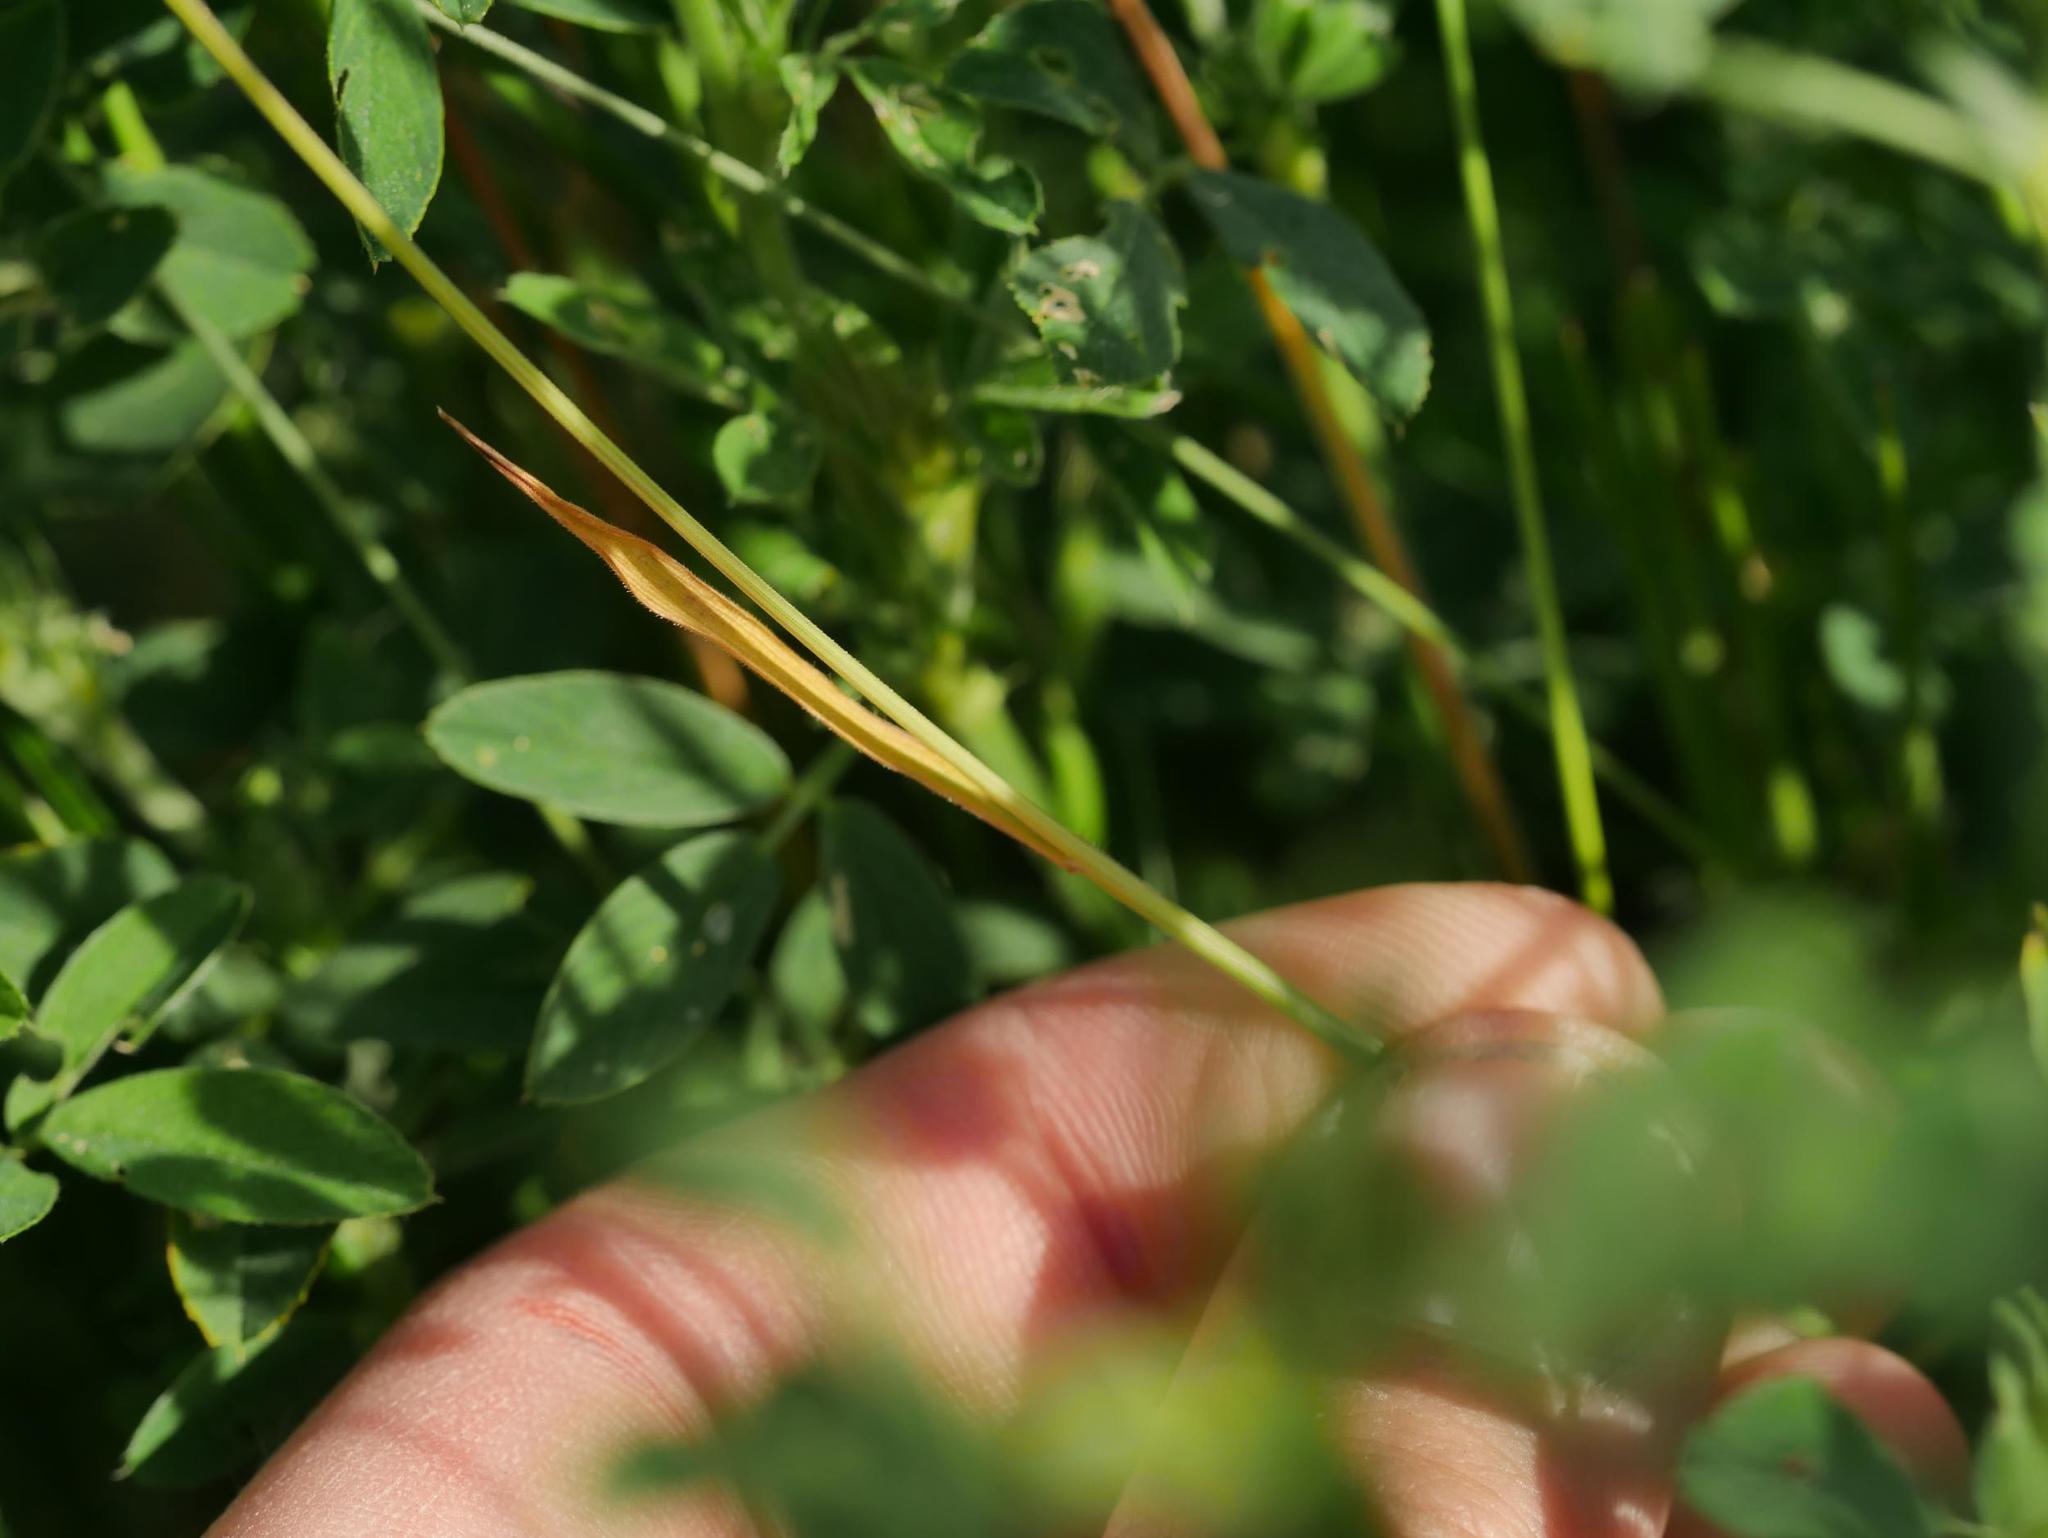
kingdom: Plantae
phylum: Tracheophyta
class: Liliopsida
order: Poales
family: Poaceae
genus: Bromus
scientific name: Bromus hordeaceus
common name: Soft brome
